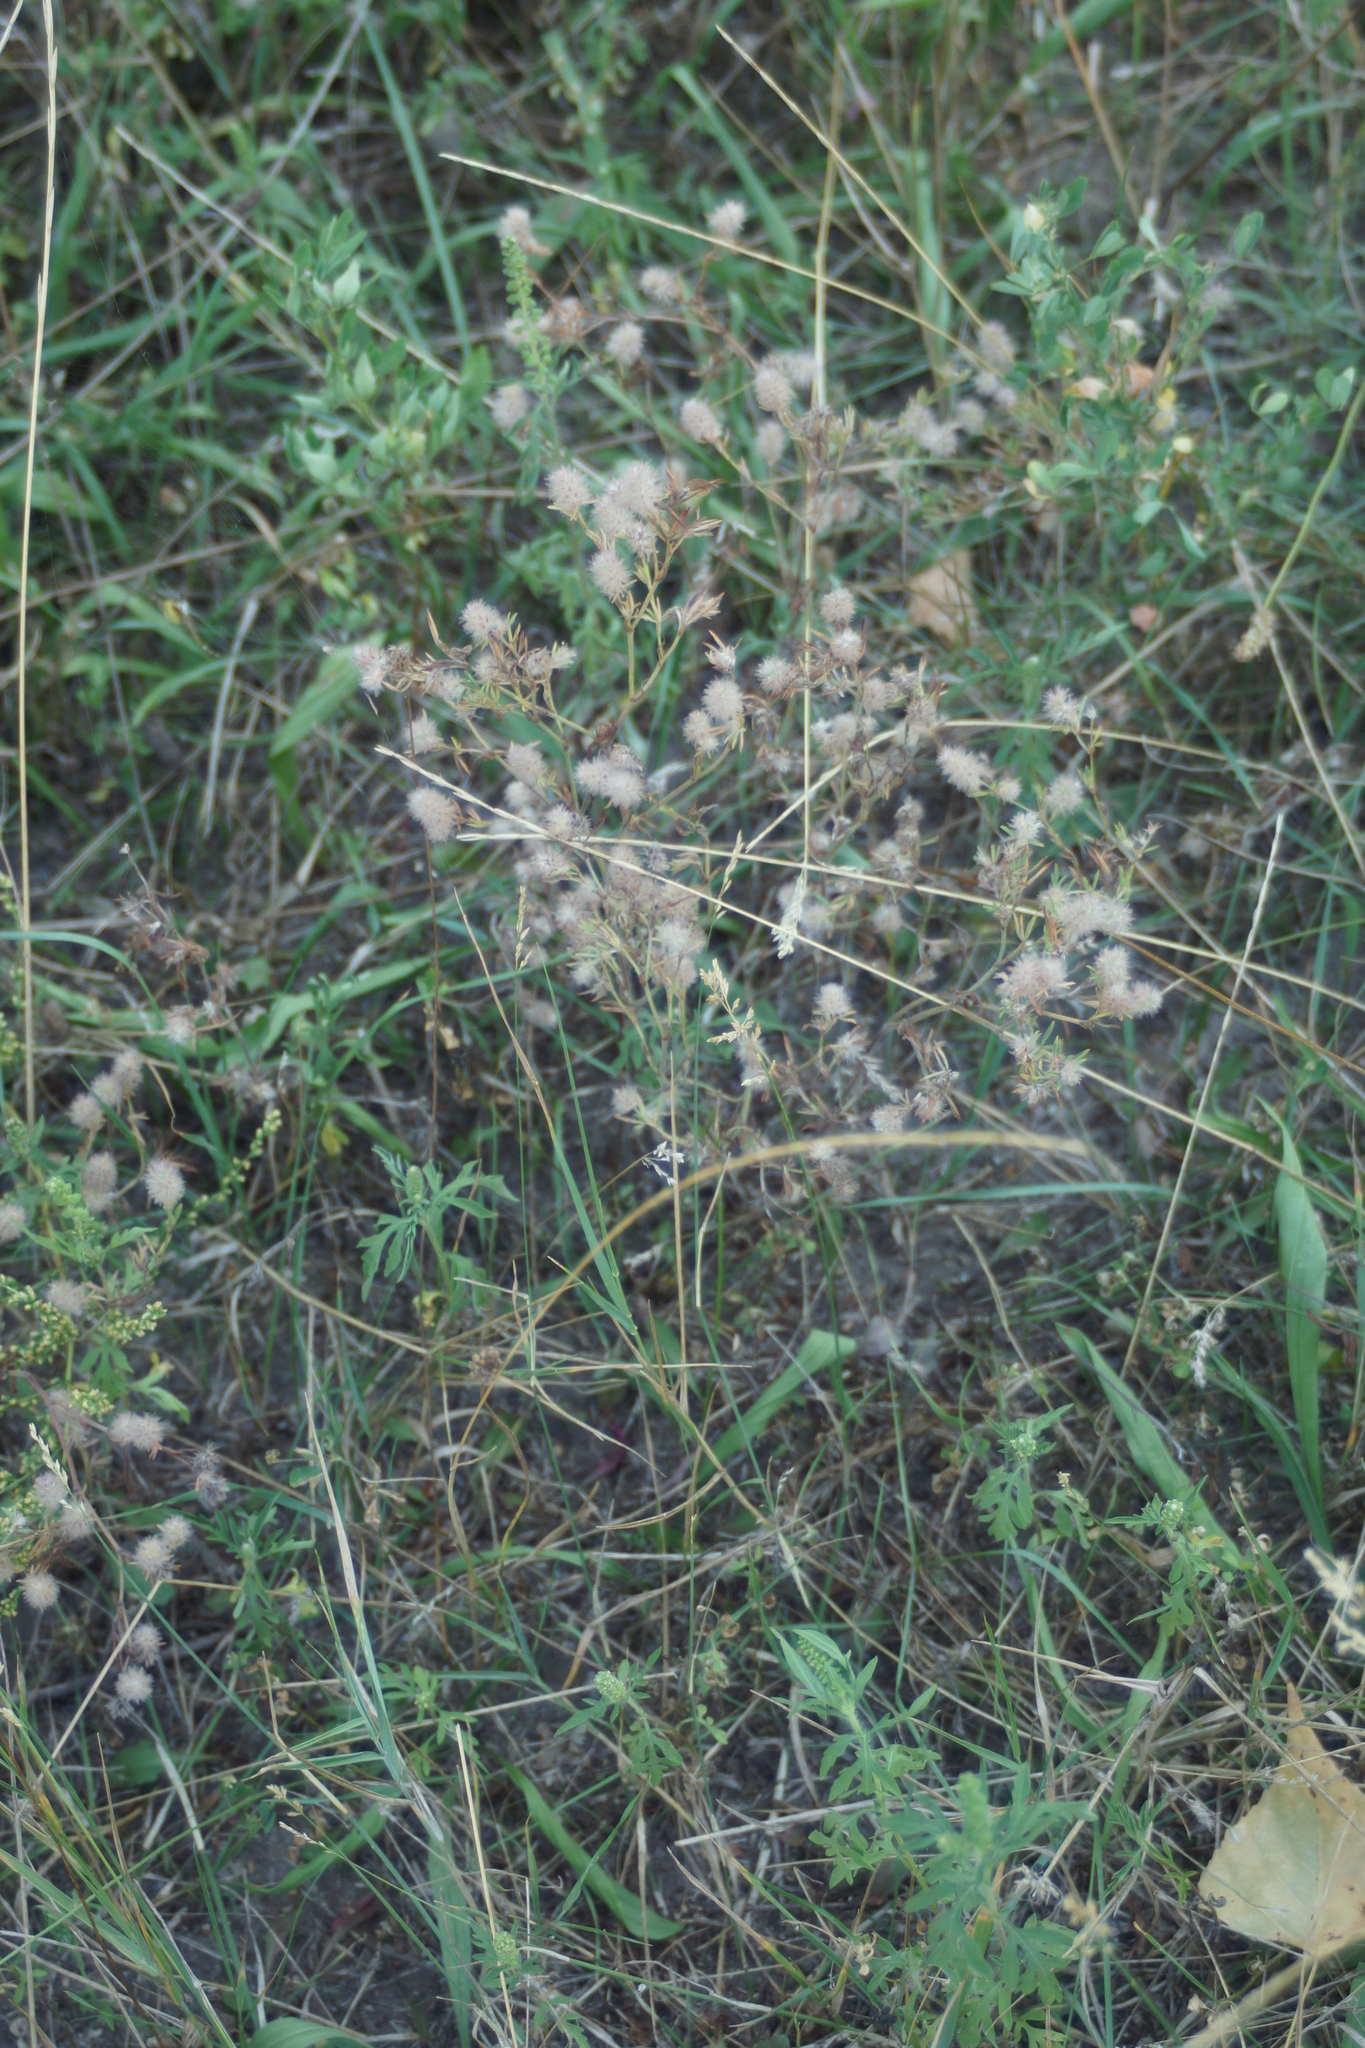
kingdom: Plantae
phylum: Tracheophyta
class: Magnoliopsida
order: Fabales
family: Fabaceae
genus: Trifolium
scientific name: Trifolium arvense
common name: Hare's-foot clover
